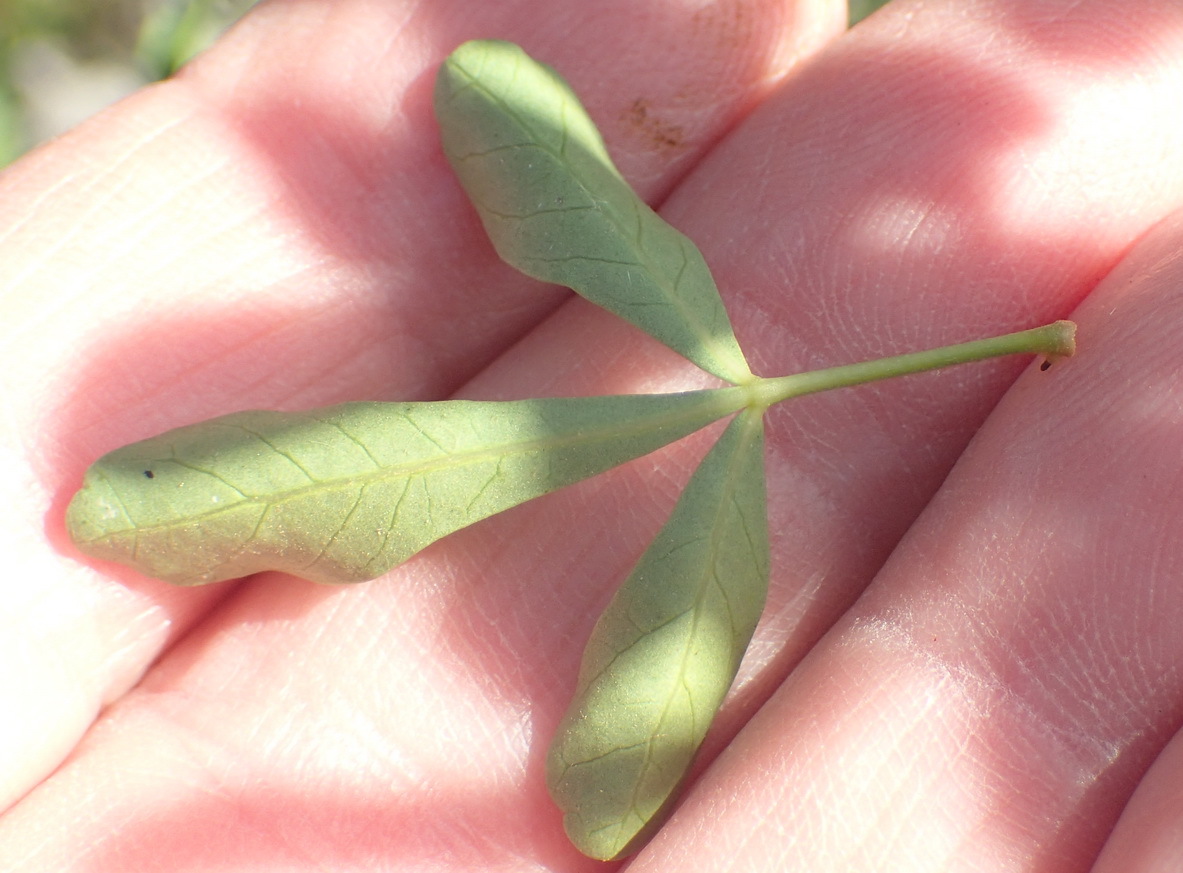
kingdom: Plantae
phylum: Tracheophyta
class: Magnoliopsida
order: Sapindales
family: Anacardiaceae
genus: Searsia
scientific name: Searsia longispina
